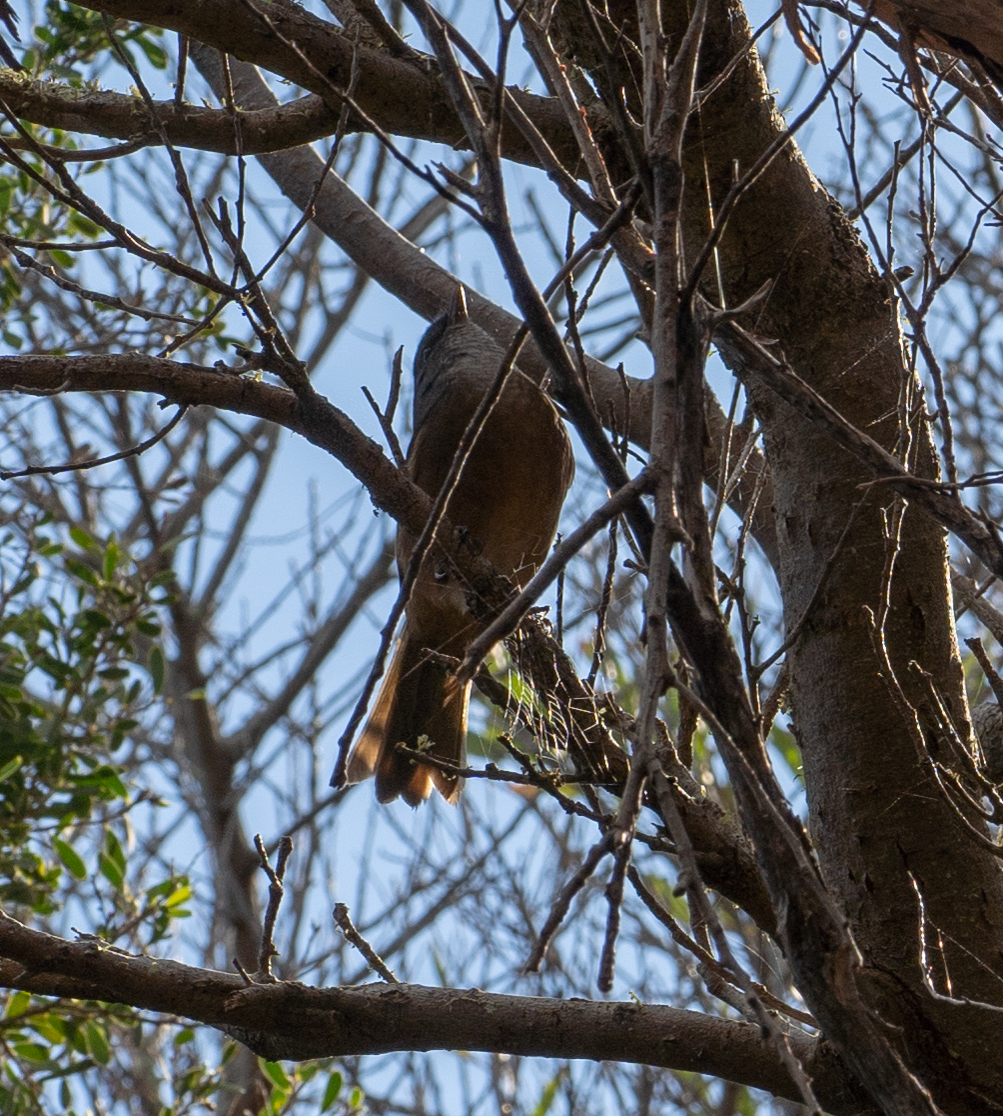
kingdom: Animalia
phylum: Chordata
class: Aves
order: Passeriformes
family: Pachycephalidae
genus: Pachycephala
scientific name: Pachycephala olivacea
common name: Olive whistler
